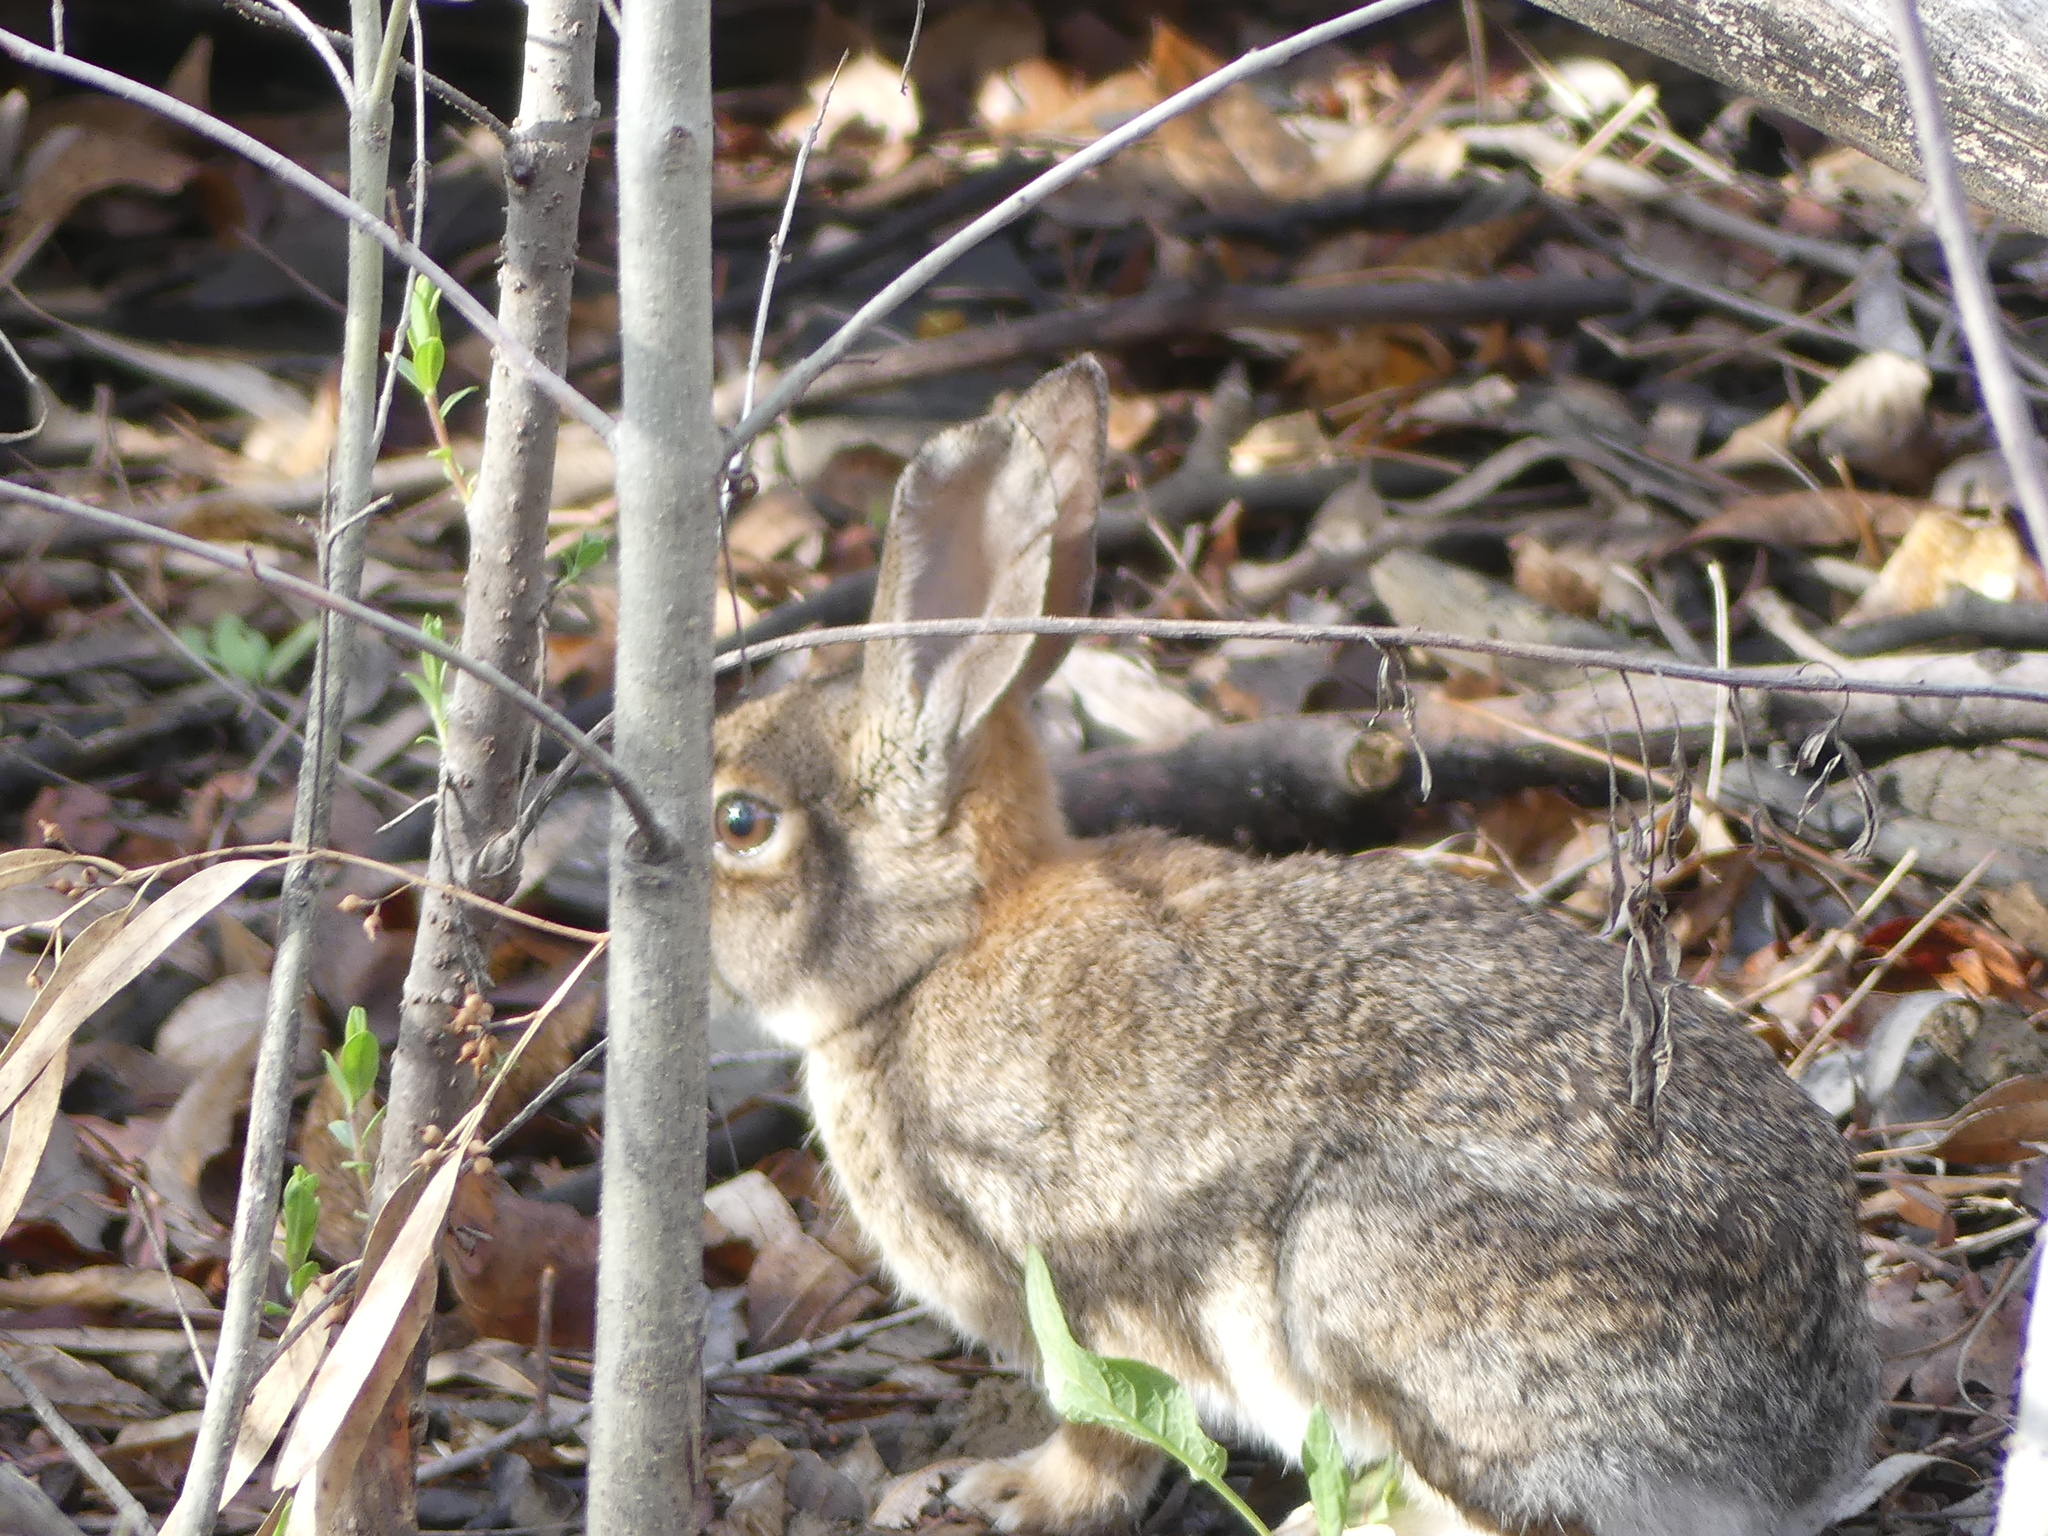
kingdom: Animalia
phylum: Chordata
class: Mammalia
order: Lagomorpha
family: Leporidae
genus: Sylvilagus
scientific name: Sylvilagus audubonii
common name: Desert cottontail
